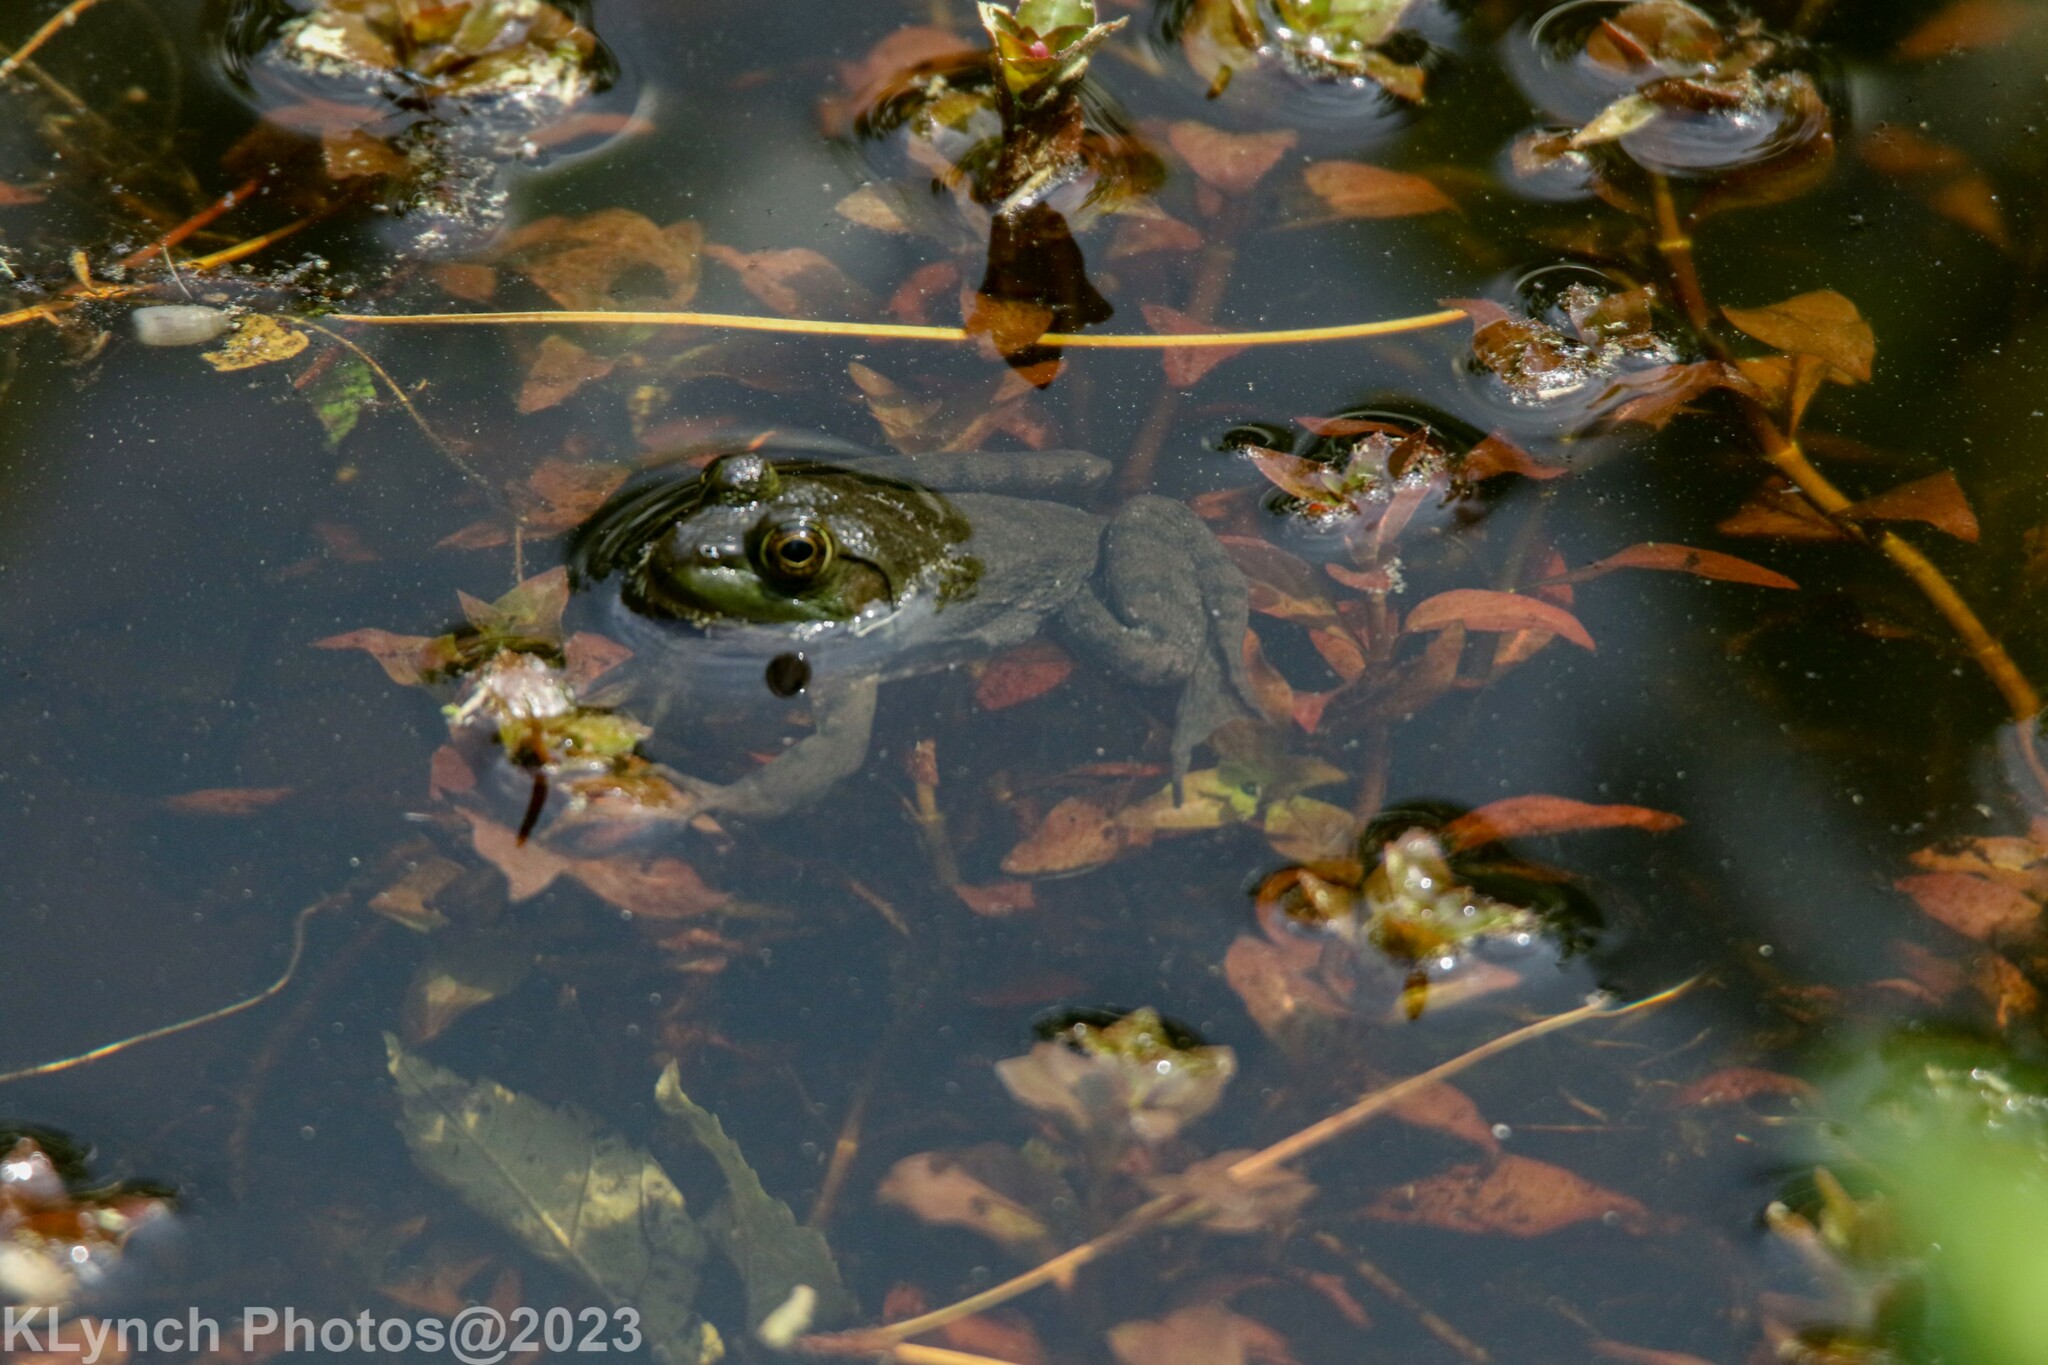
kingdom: Animalia
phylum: Chordata
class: Amphibia
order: Anura
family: Ranidae
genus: Lithobates
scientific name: Lithobates catesbeianus
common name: American bullfrog
